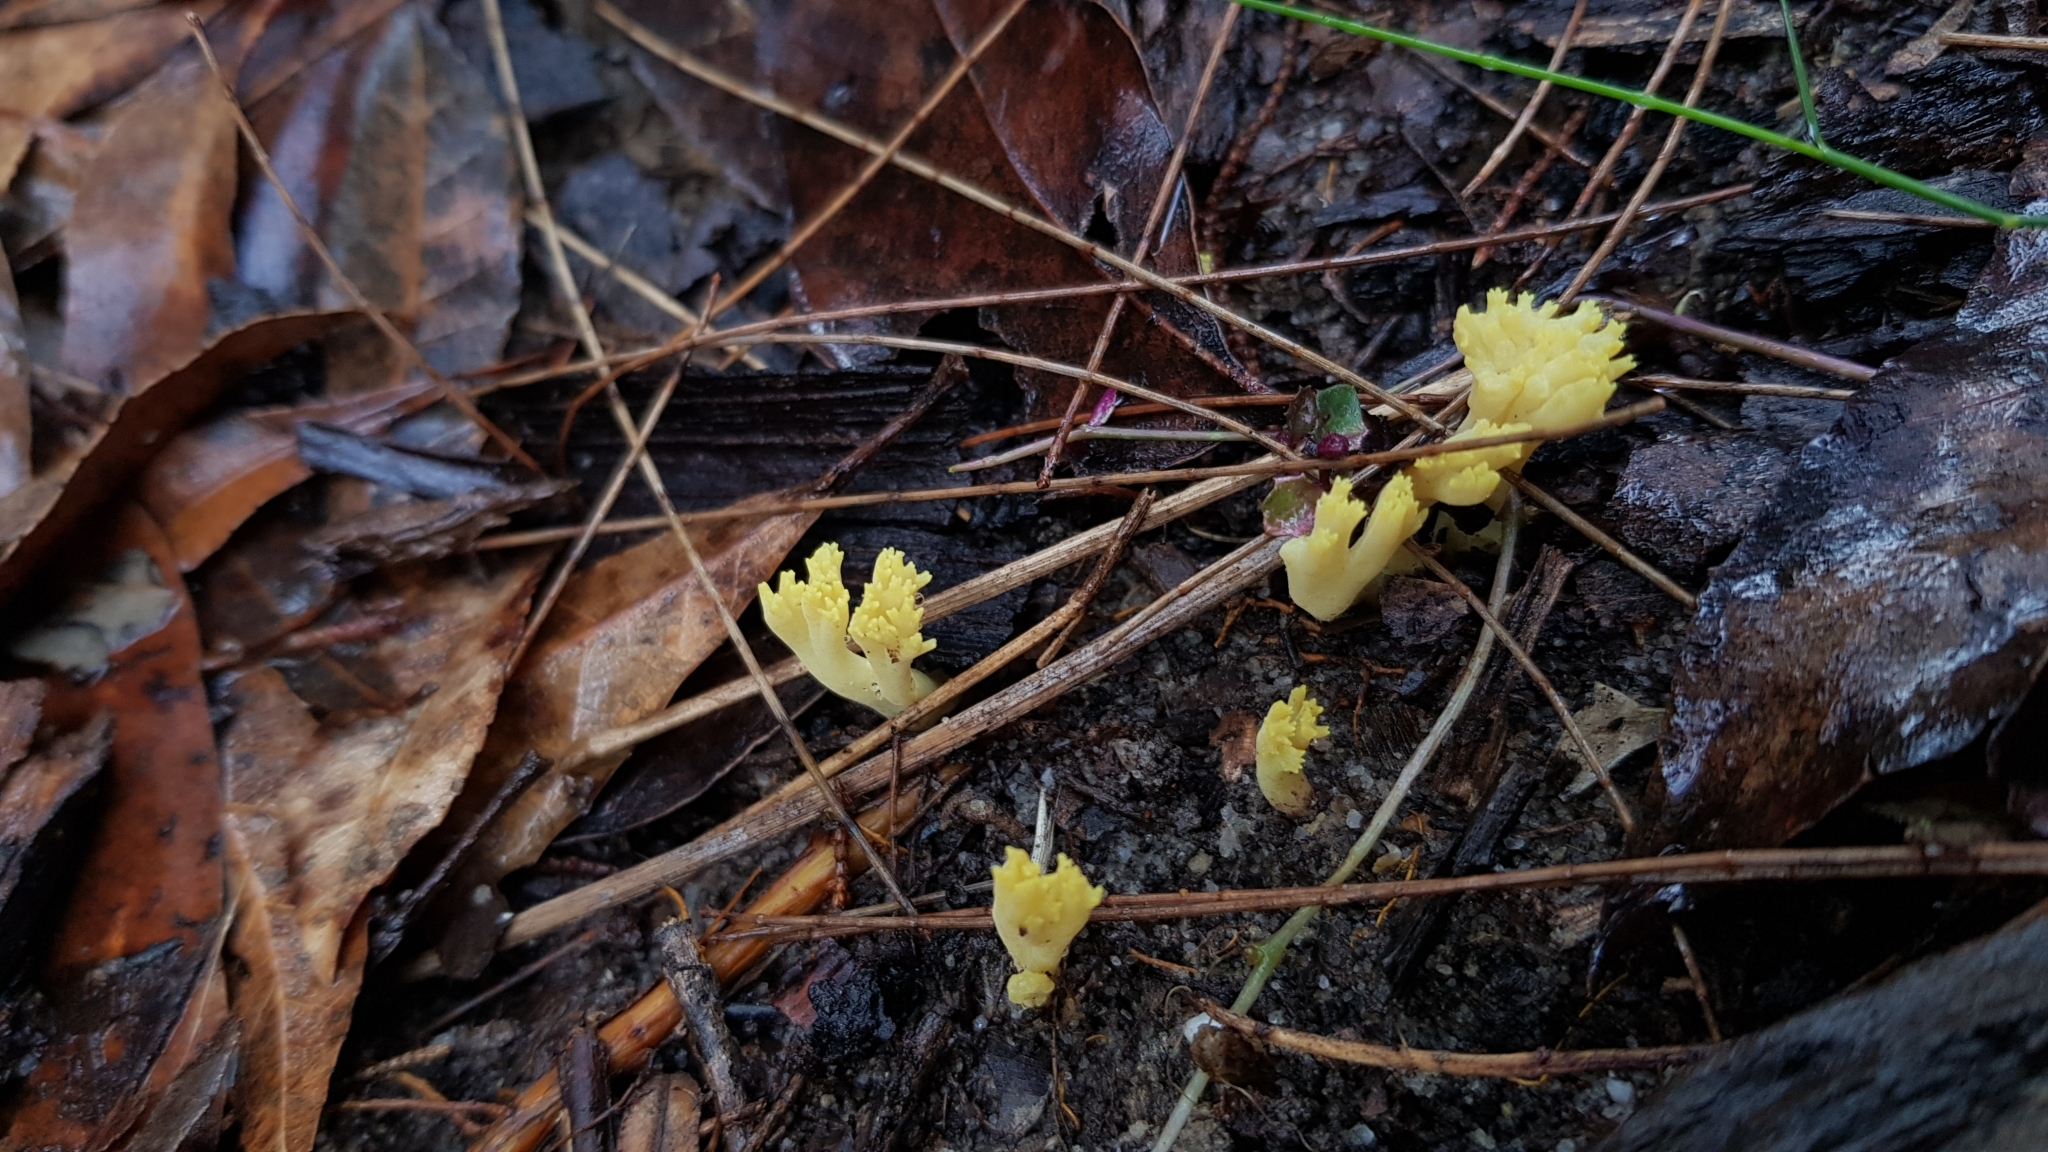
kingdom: Fungi
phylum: Basidiomycota
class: Agaricomycetes
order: Gomphales
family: Gomphaceae
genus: Ramaria
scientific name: Ramaria lorithamnus
